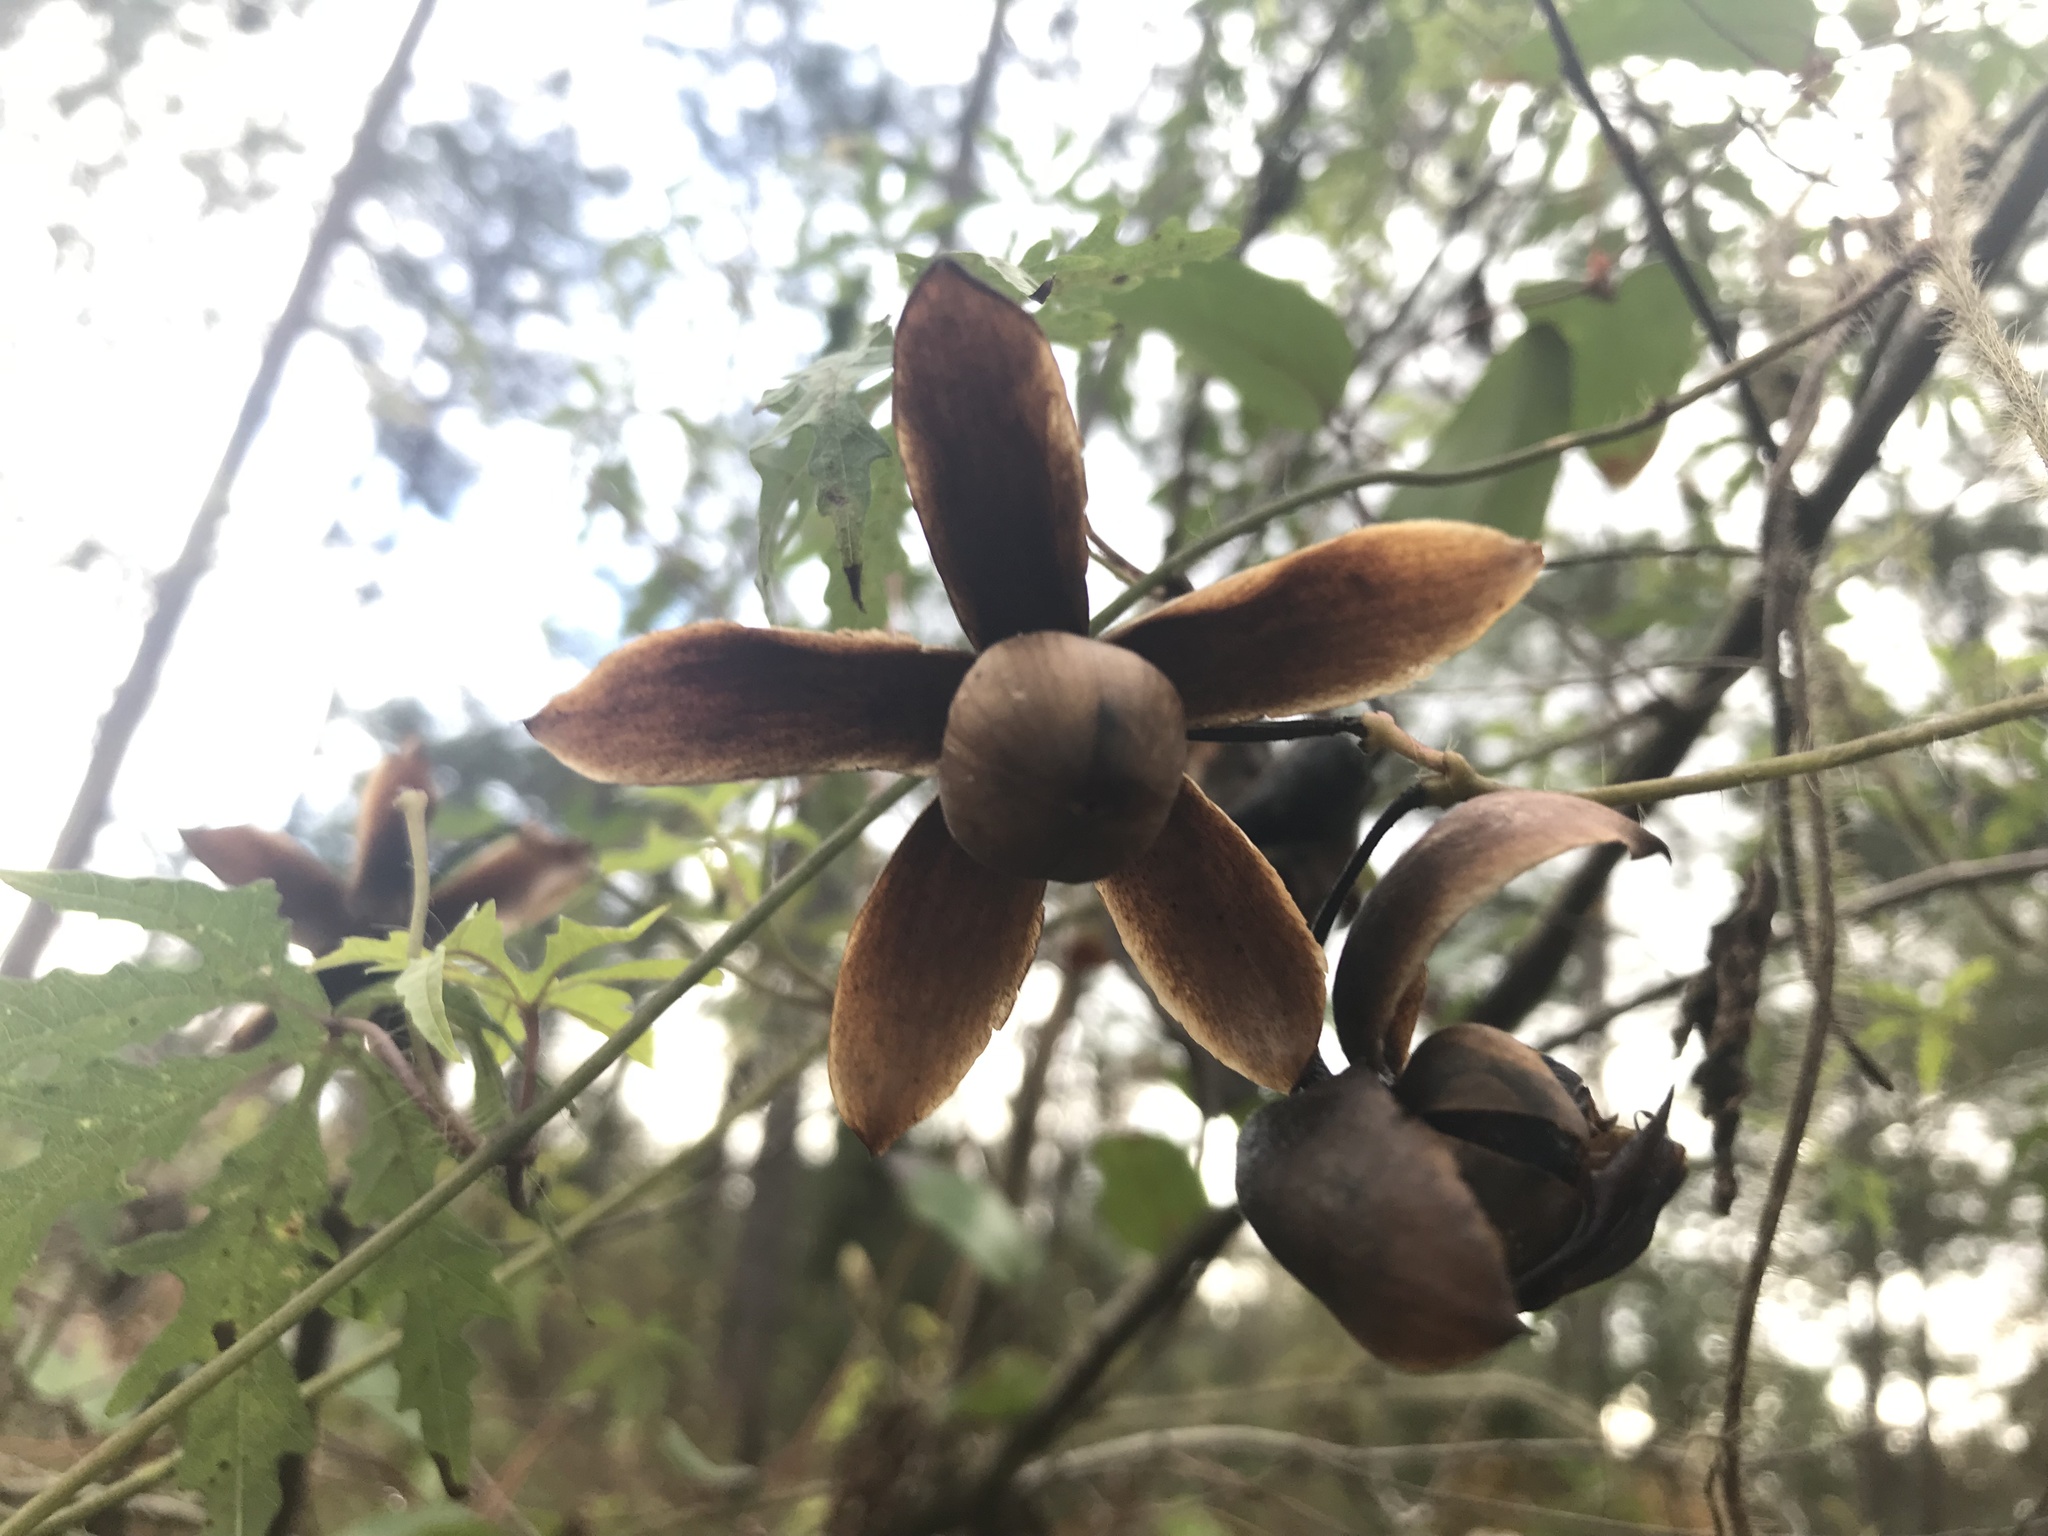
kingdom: Plantae
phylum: Tracheophyta
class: Magnoliopsida
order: Solanales
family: Convolvulaceae
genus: Distimake
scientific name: Distimake dissectus
